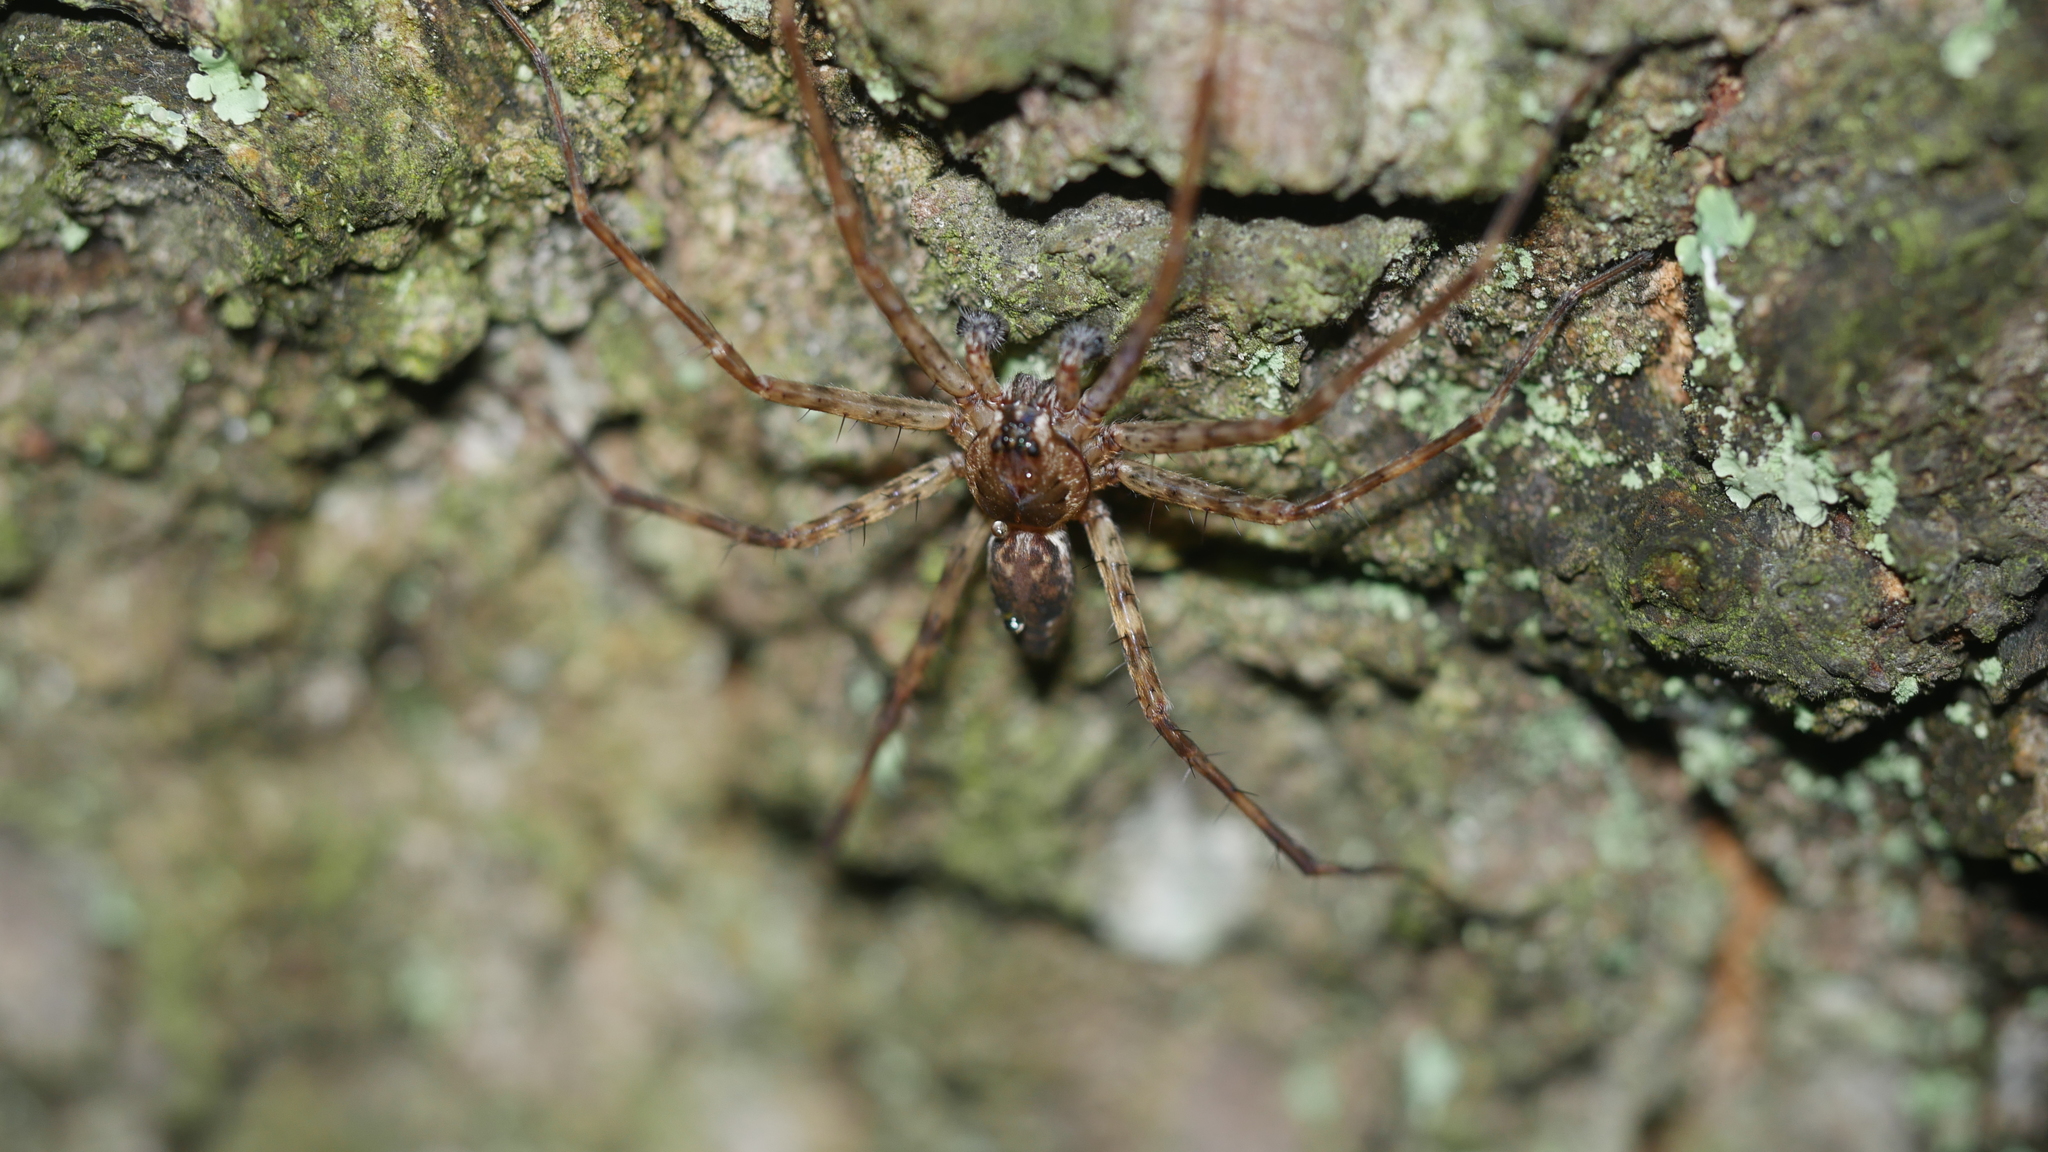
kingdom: Animalia
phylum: Arthropoda
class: Arachnida
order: Araneae
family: Pisauridae
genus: Dolomedes
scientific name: Dolomedes tenebrosus
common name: Dark fishing spider
